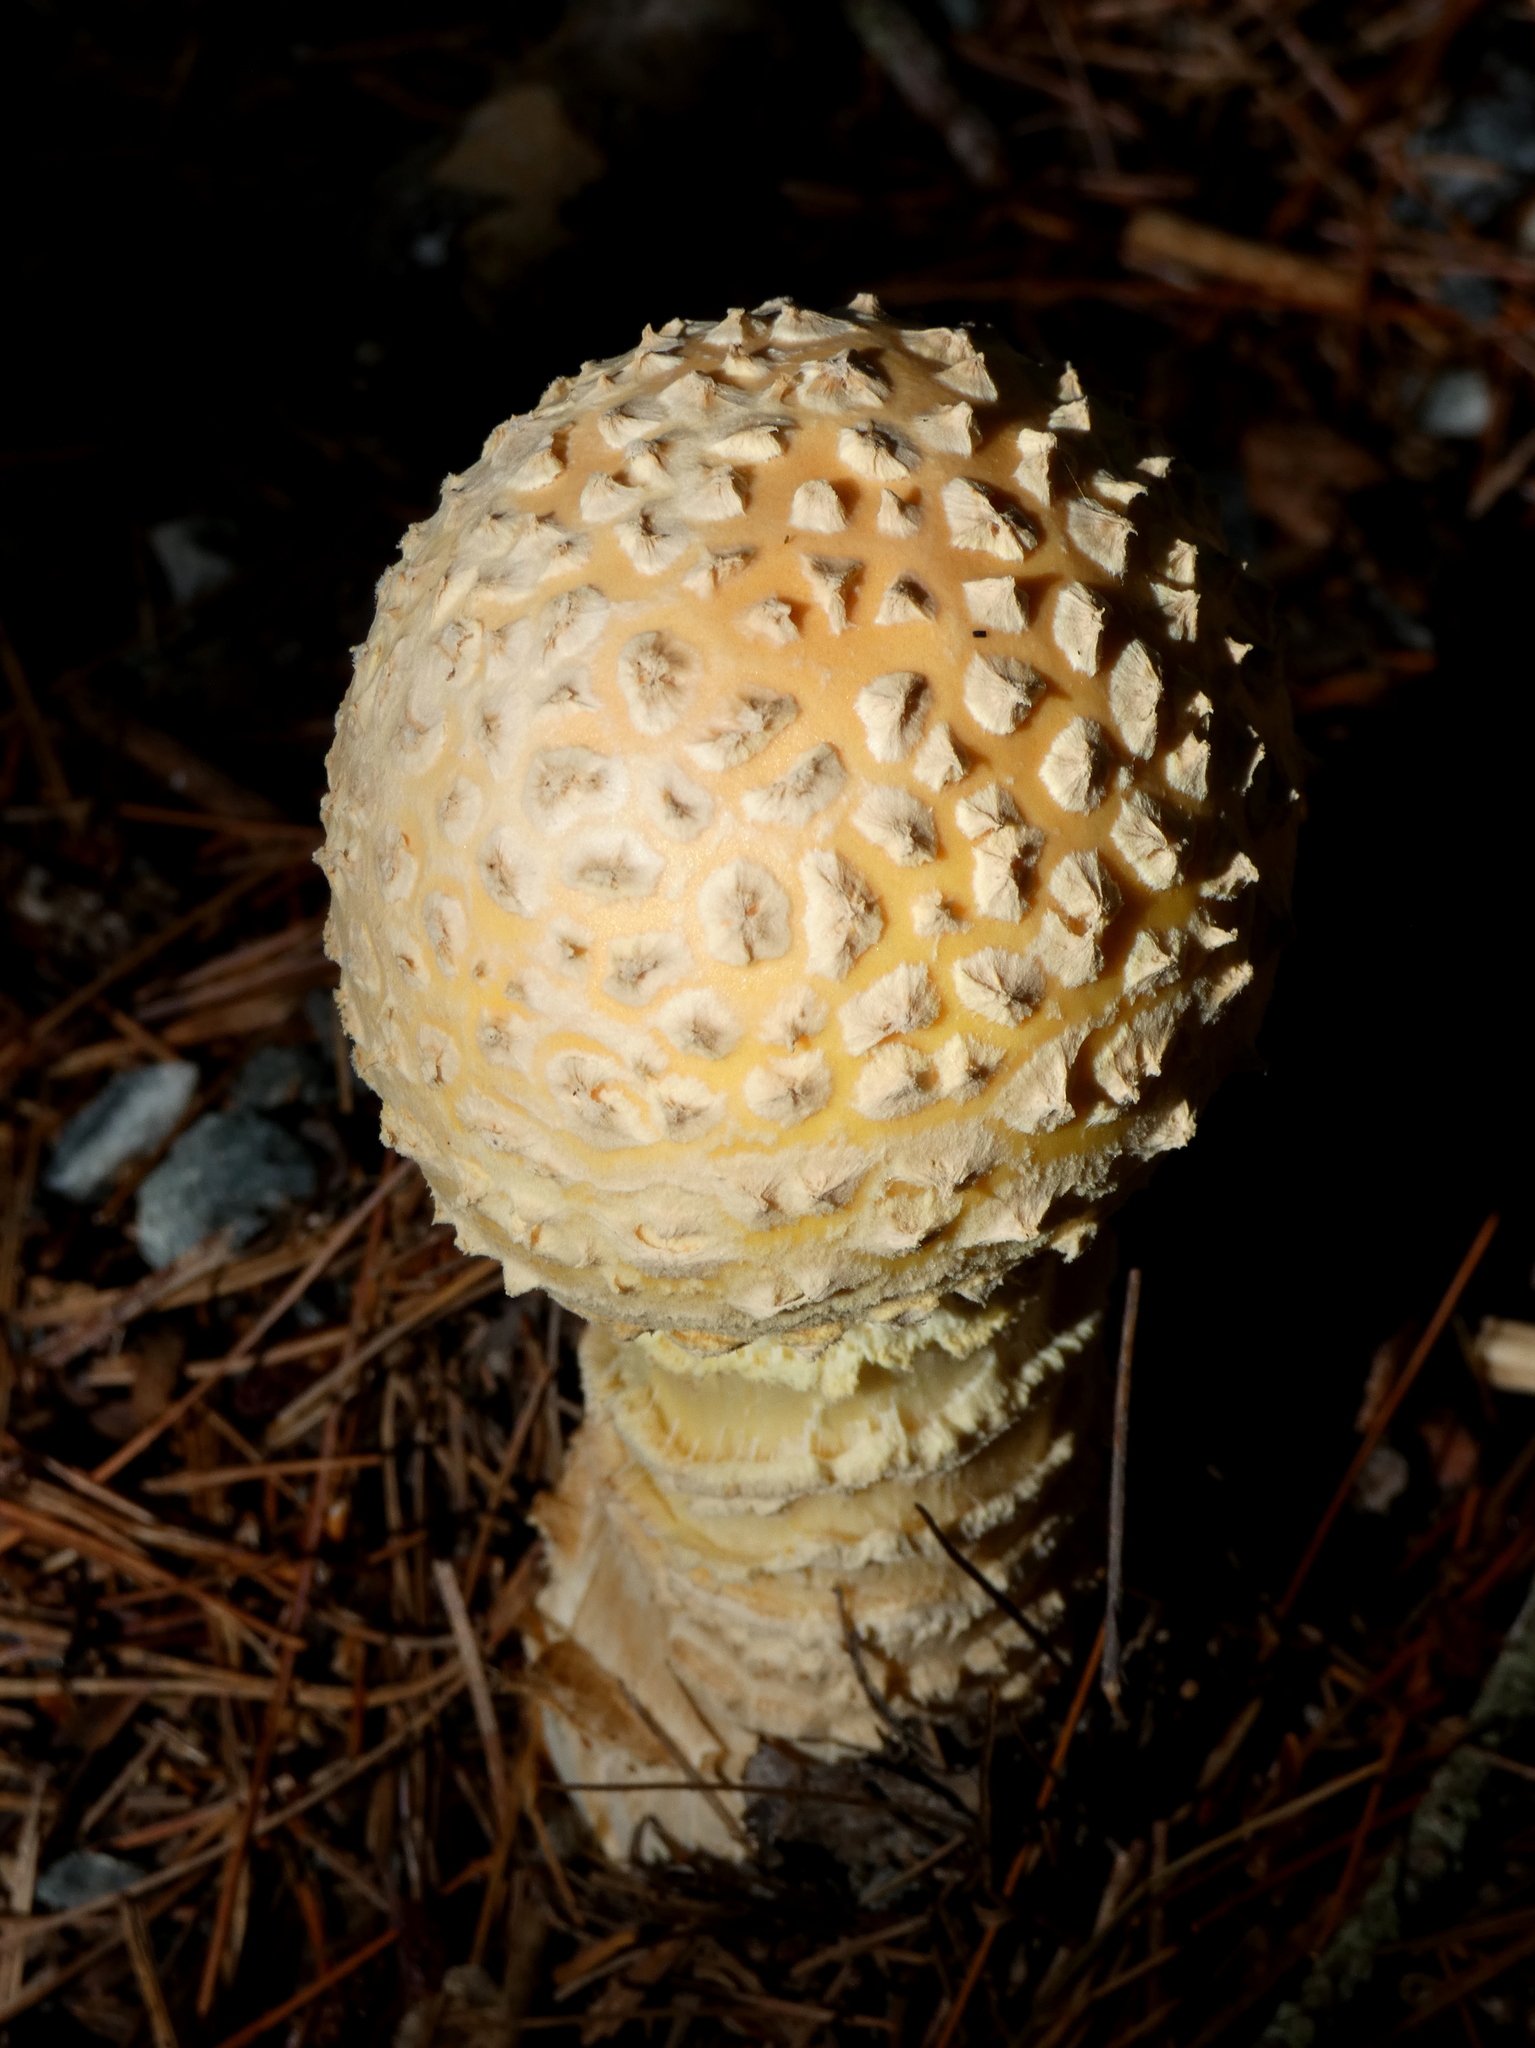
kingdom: Fungi
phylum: Basidiomycota
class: Agaricomycetes
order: Agaricales
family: Amanitaceae
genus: Amanita
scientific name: Amanita muscaria
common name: Fly agaric
